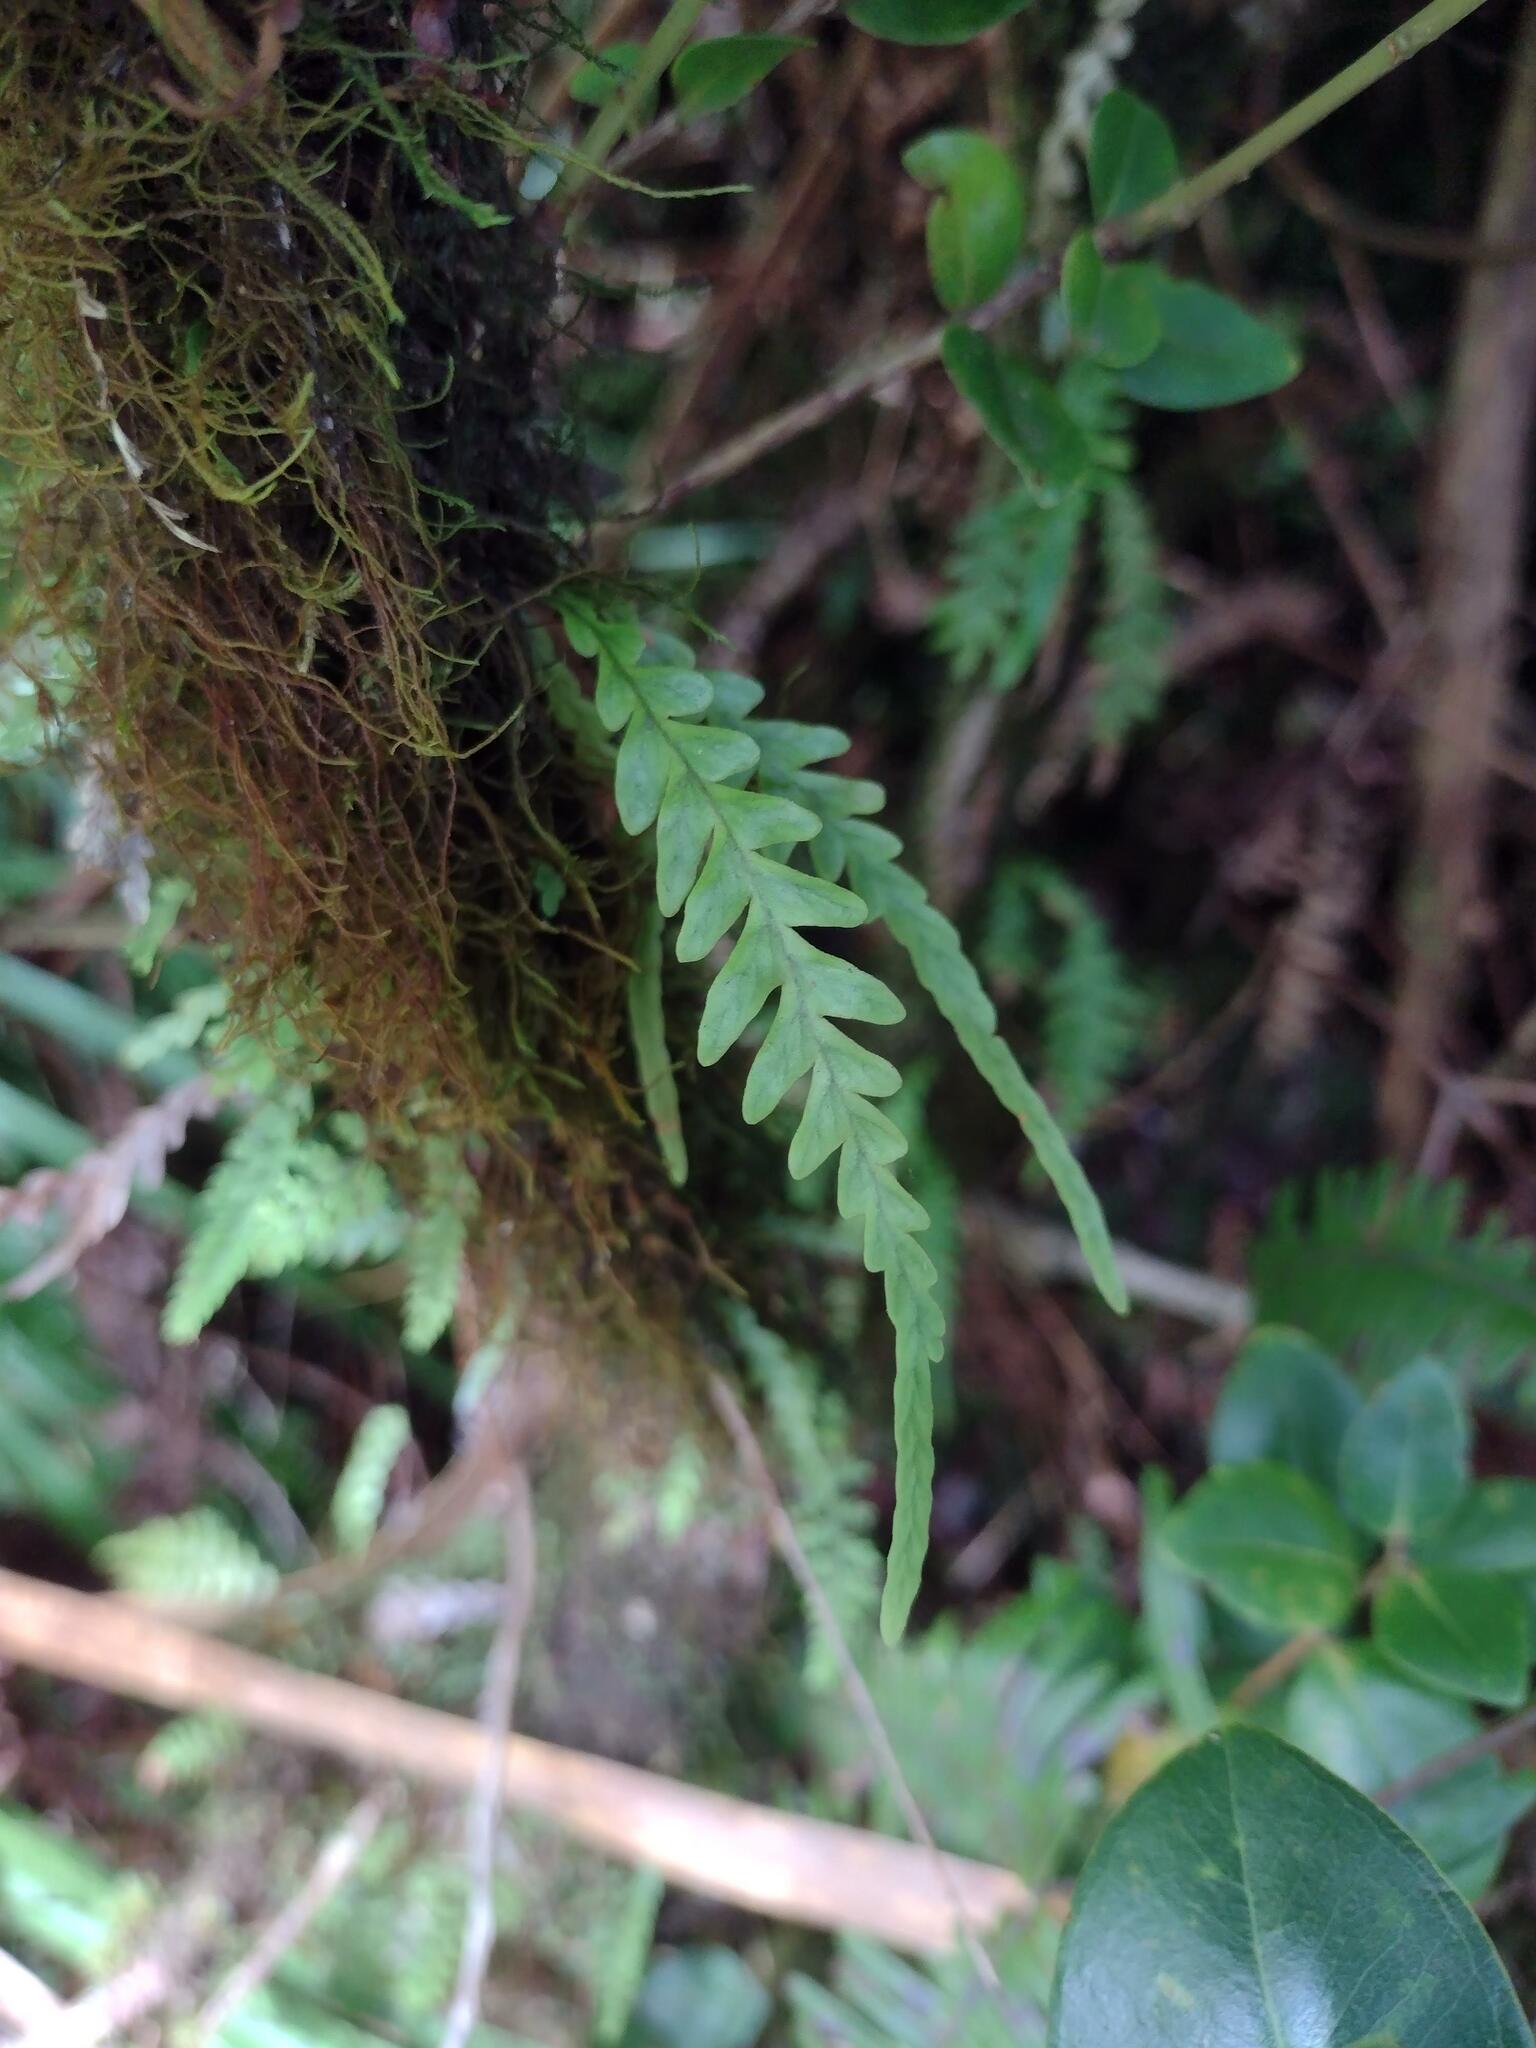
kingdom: Plantae
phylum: Tracheophyta
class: Polypodiopsida
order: Polypodiales
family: Polypodiaceae
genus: Adenophorus
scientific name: Adenophorus pinnatifidus
